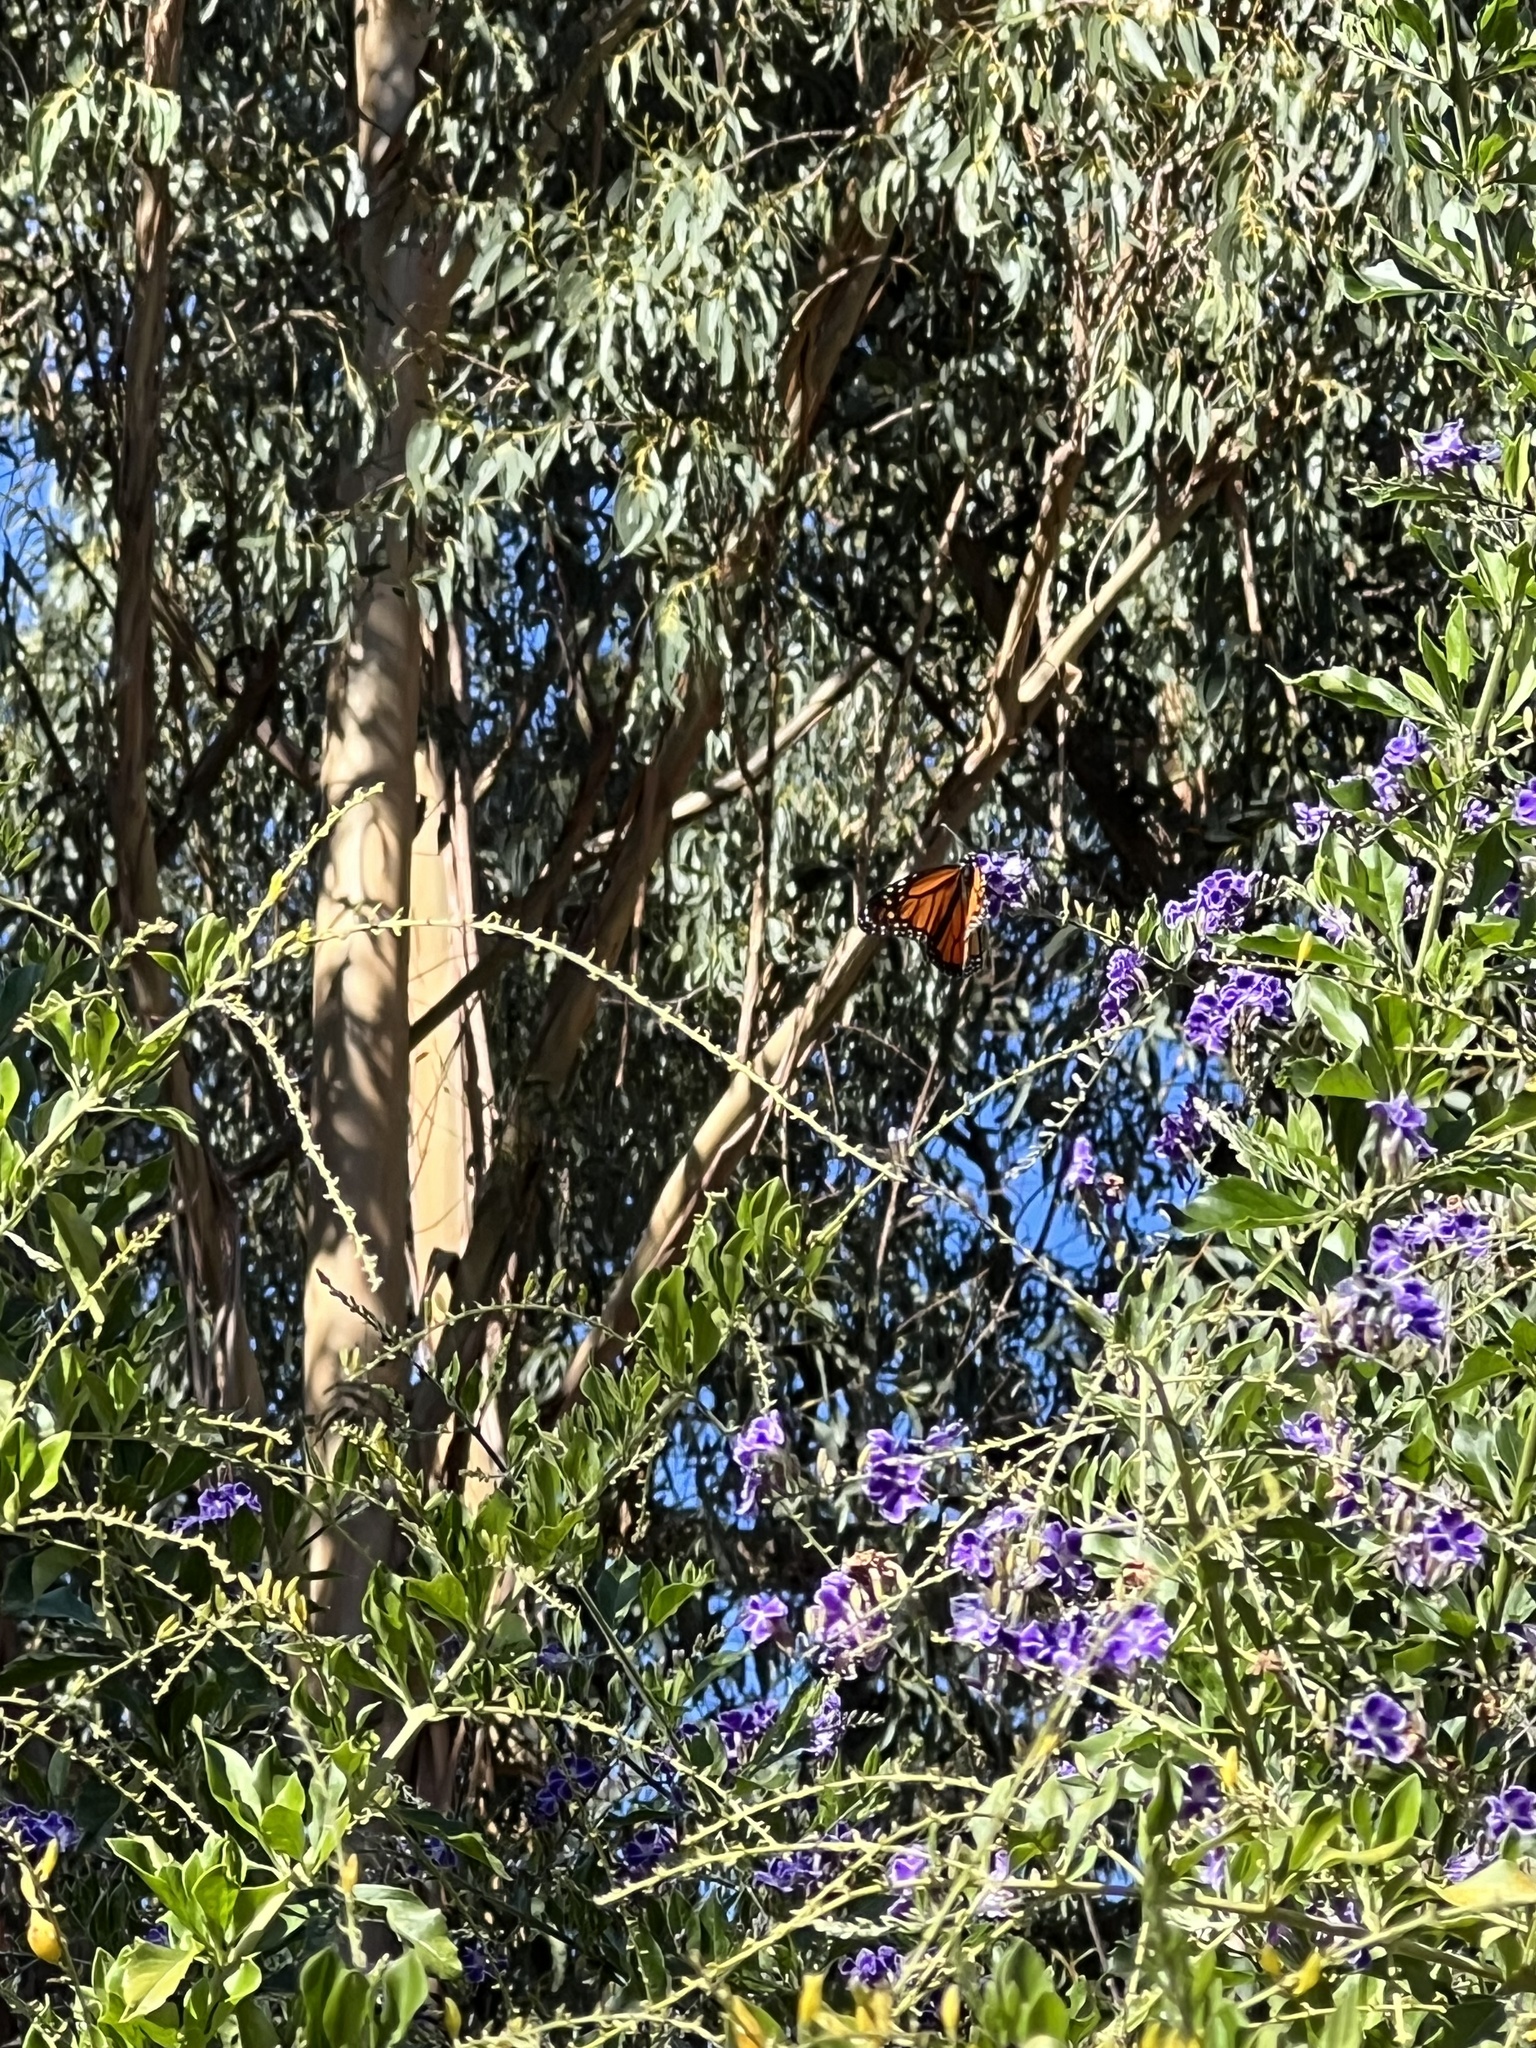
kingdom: Animalia
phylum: Arthropoda
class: Insecta
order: Lepidoptera
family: Nymphalidae
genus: Danaus
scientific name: Danaus plexippus
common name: Monarch
